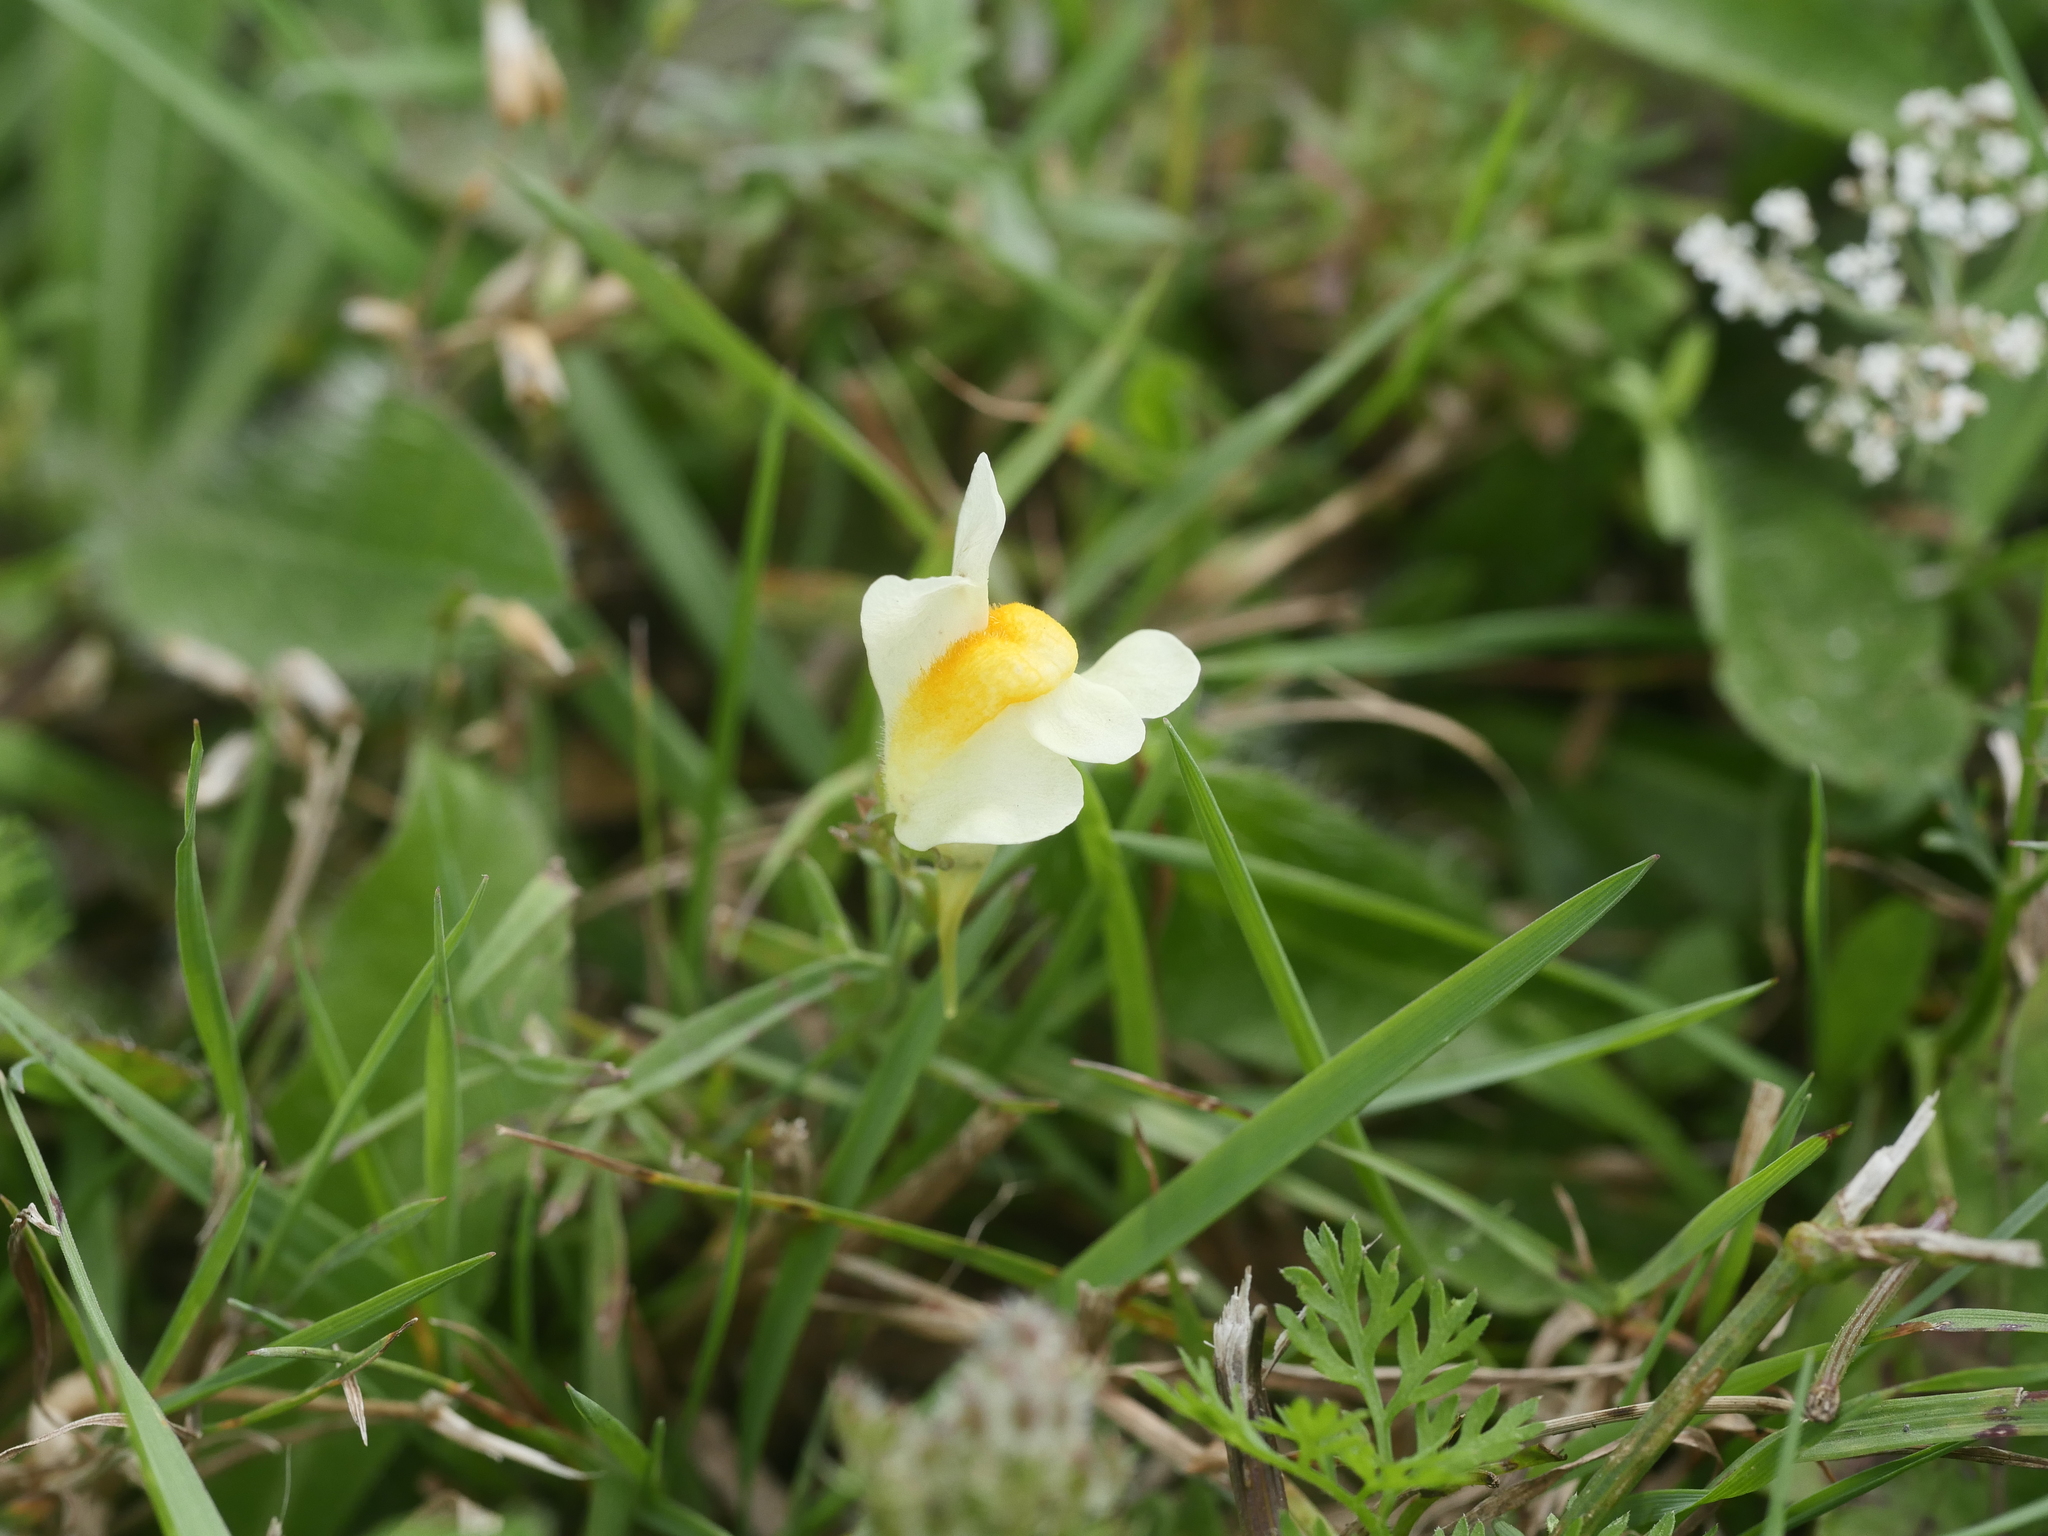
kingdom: Plantae
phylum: Tracheophyta
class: Magnoliopsida
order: Lamiales
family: Plantaginaceae
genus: Linaria
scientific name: Linaria vulgaris
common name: Butter and eggs
